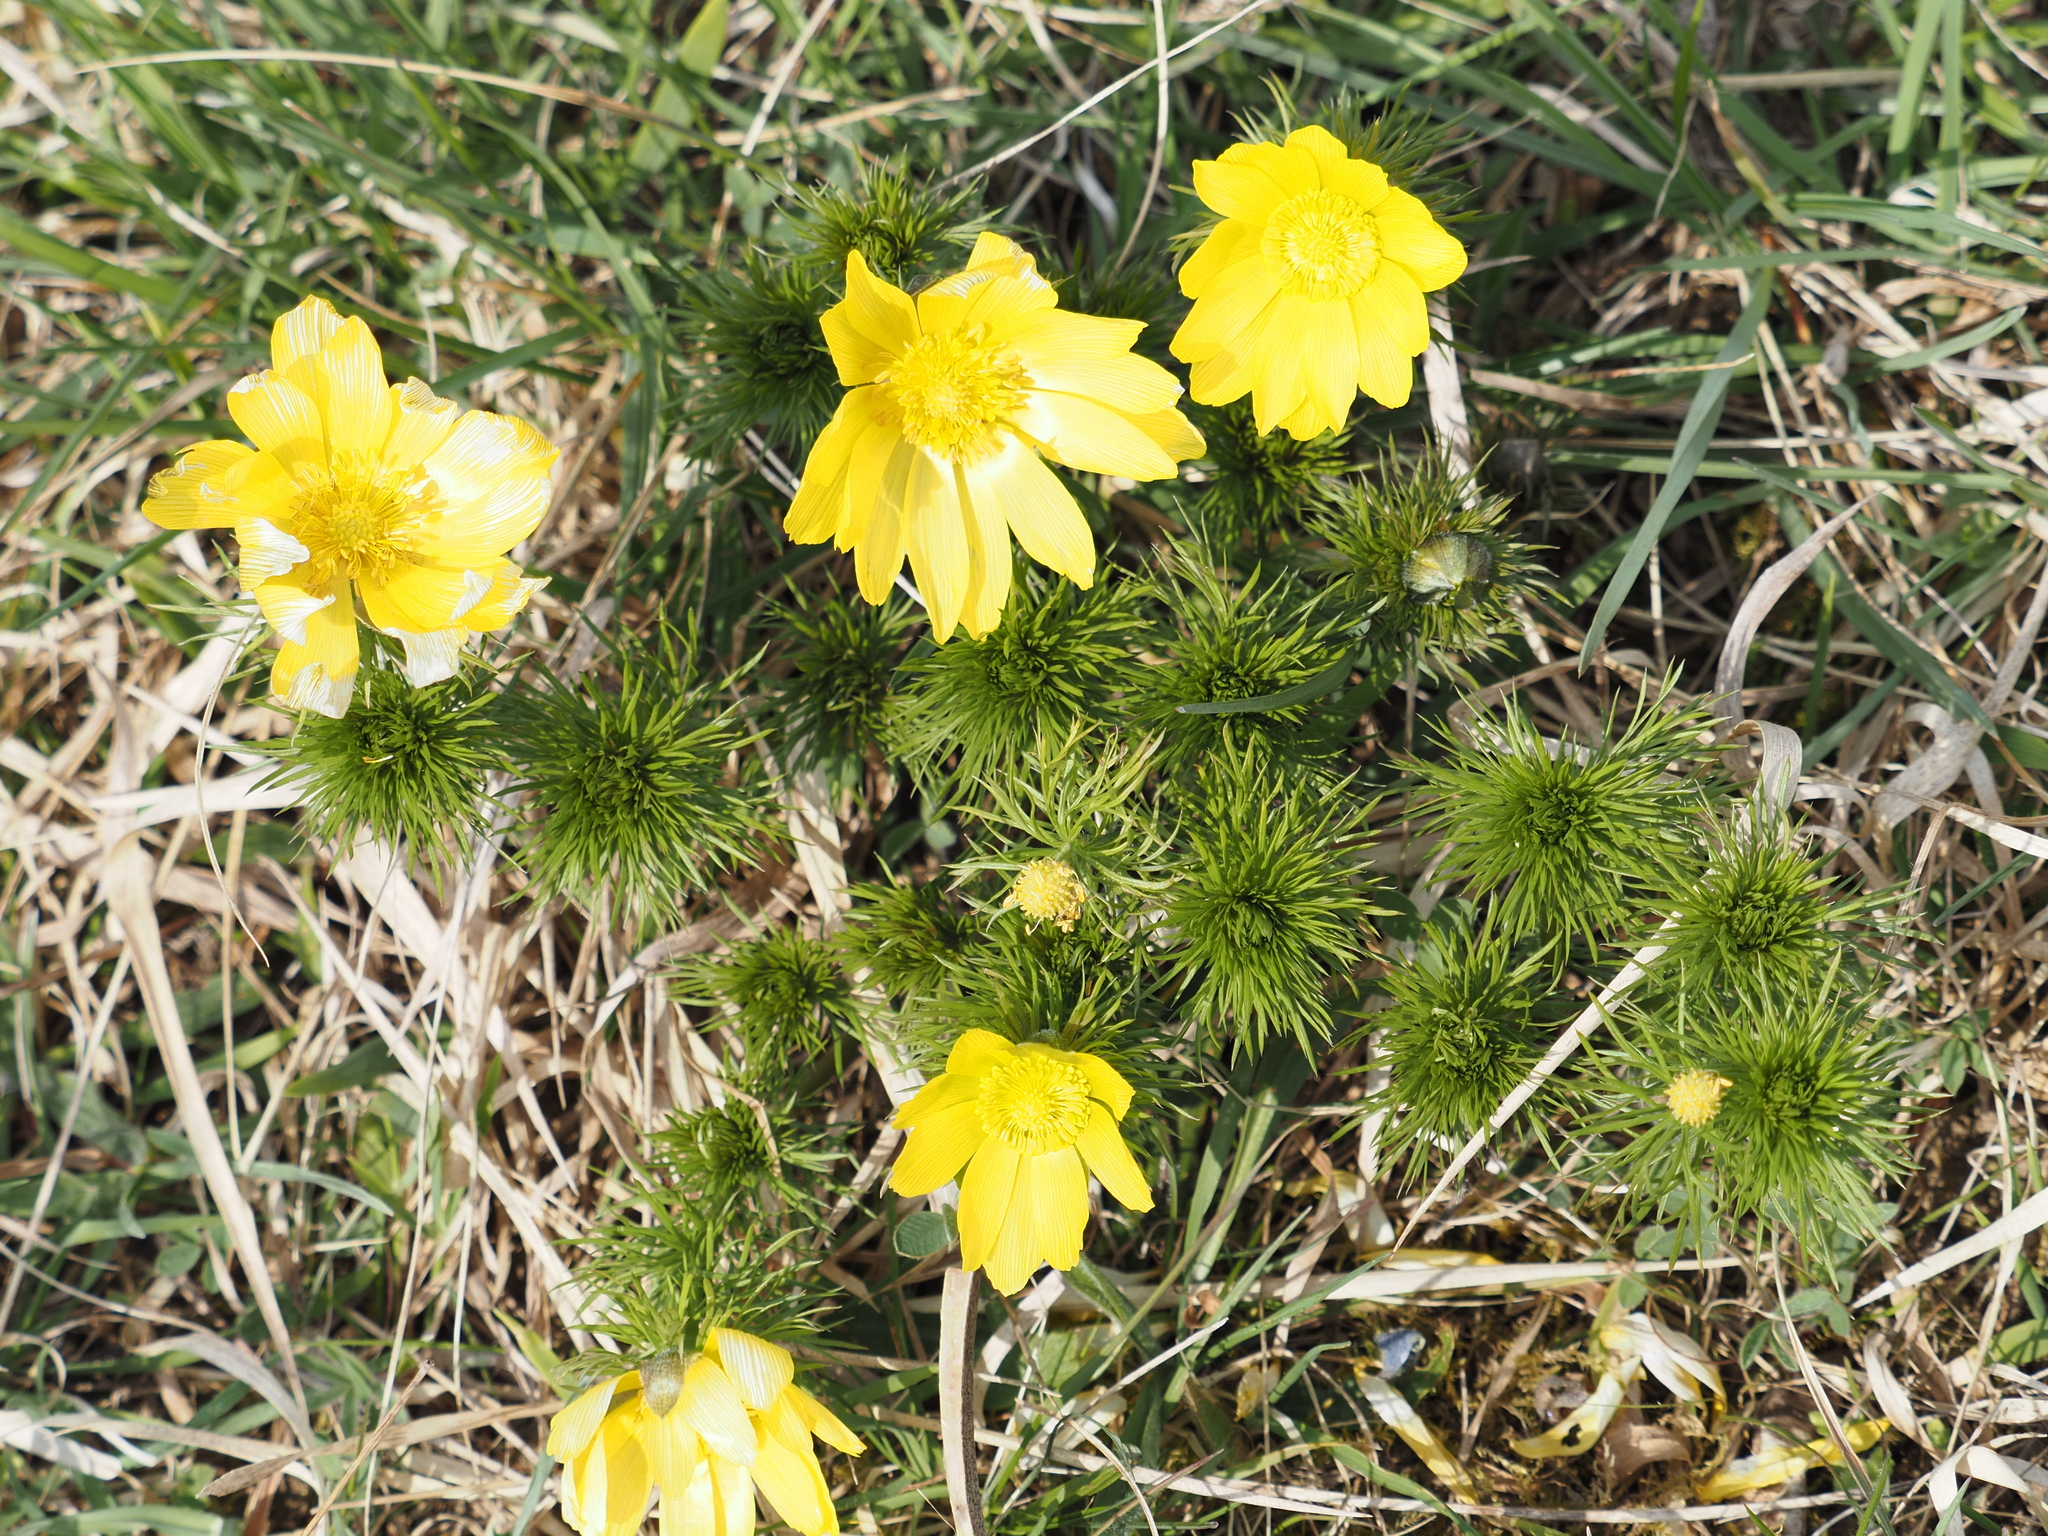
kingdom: Plantae
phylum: Tracheophyta
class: Magnoliopsida
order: Ranunculales
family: Ranunculaceae
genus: Adonis
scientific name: Adonis vernalis
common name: Yellow pheasants-eye
